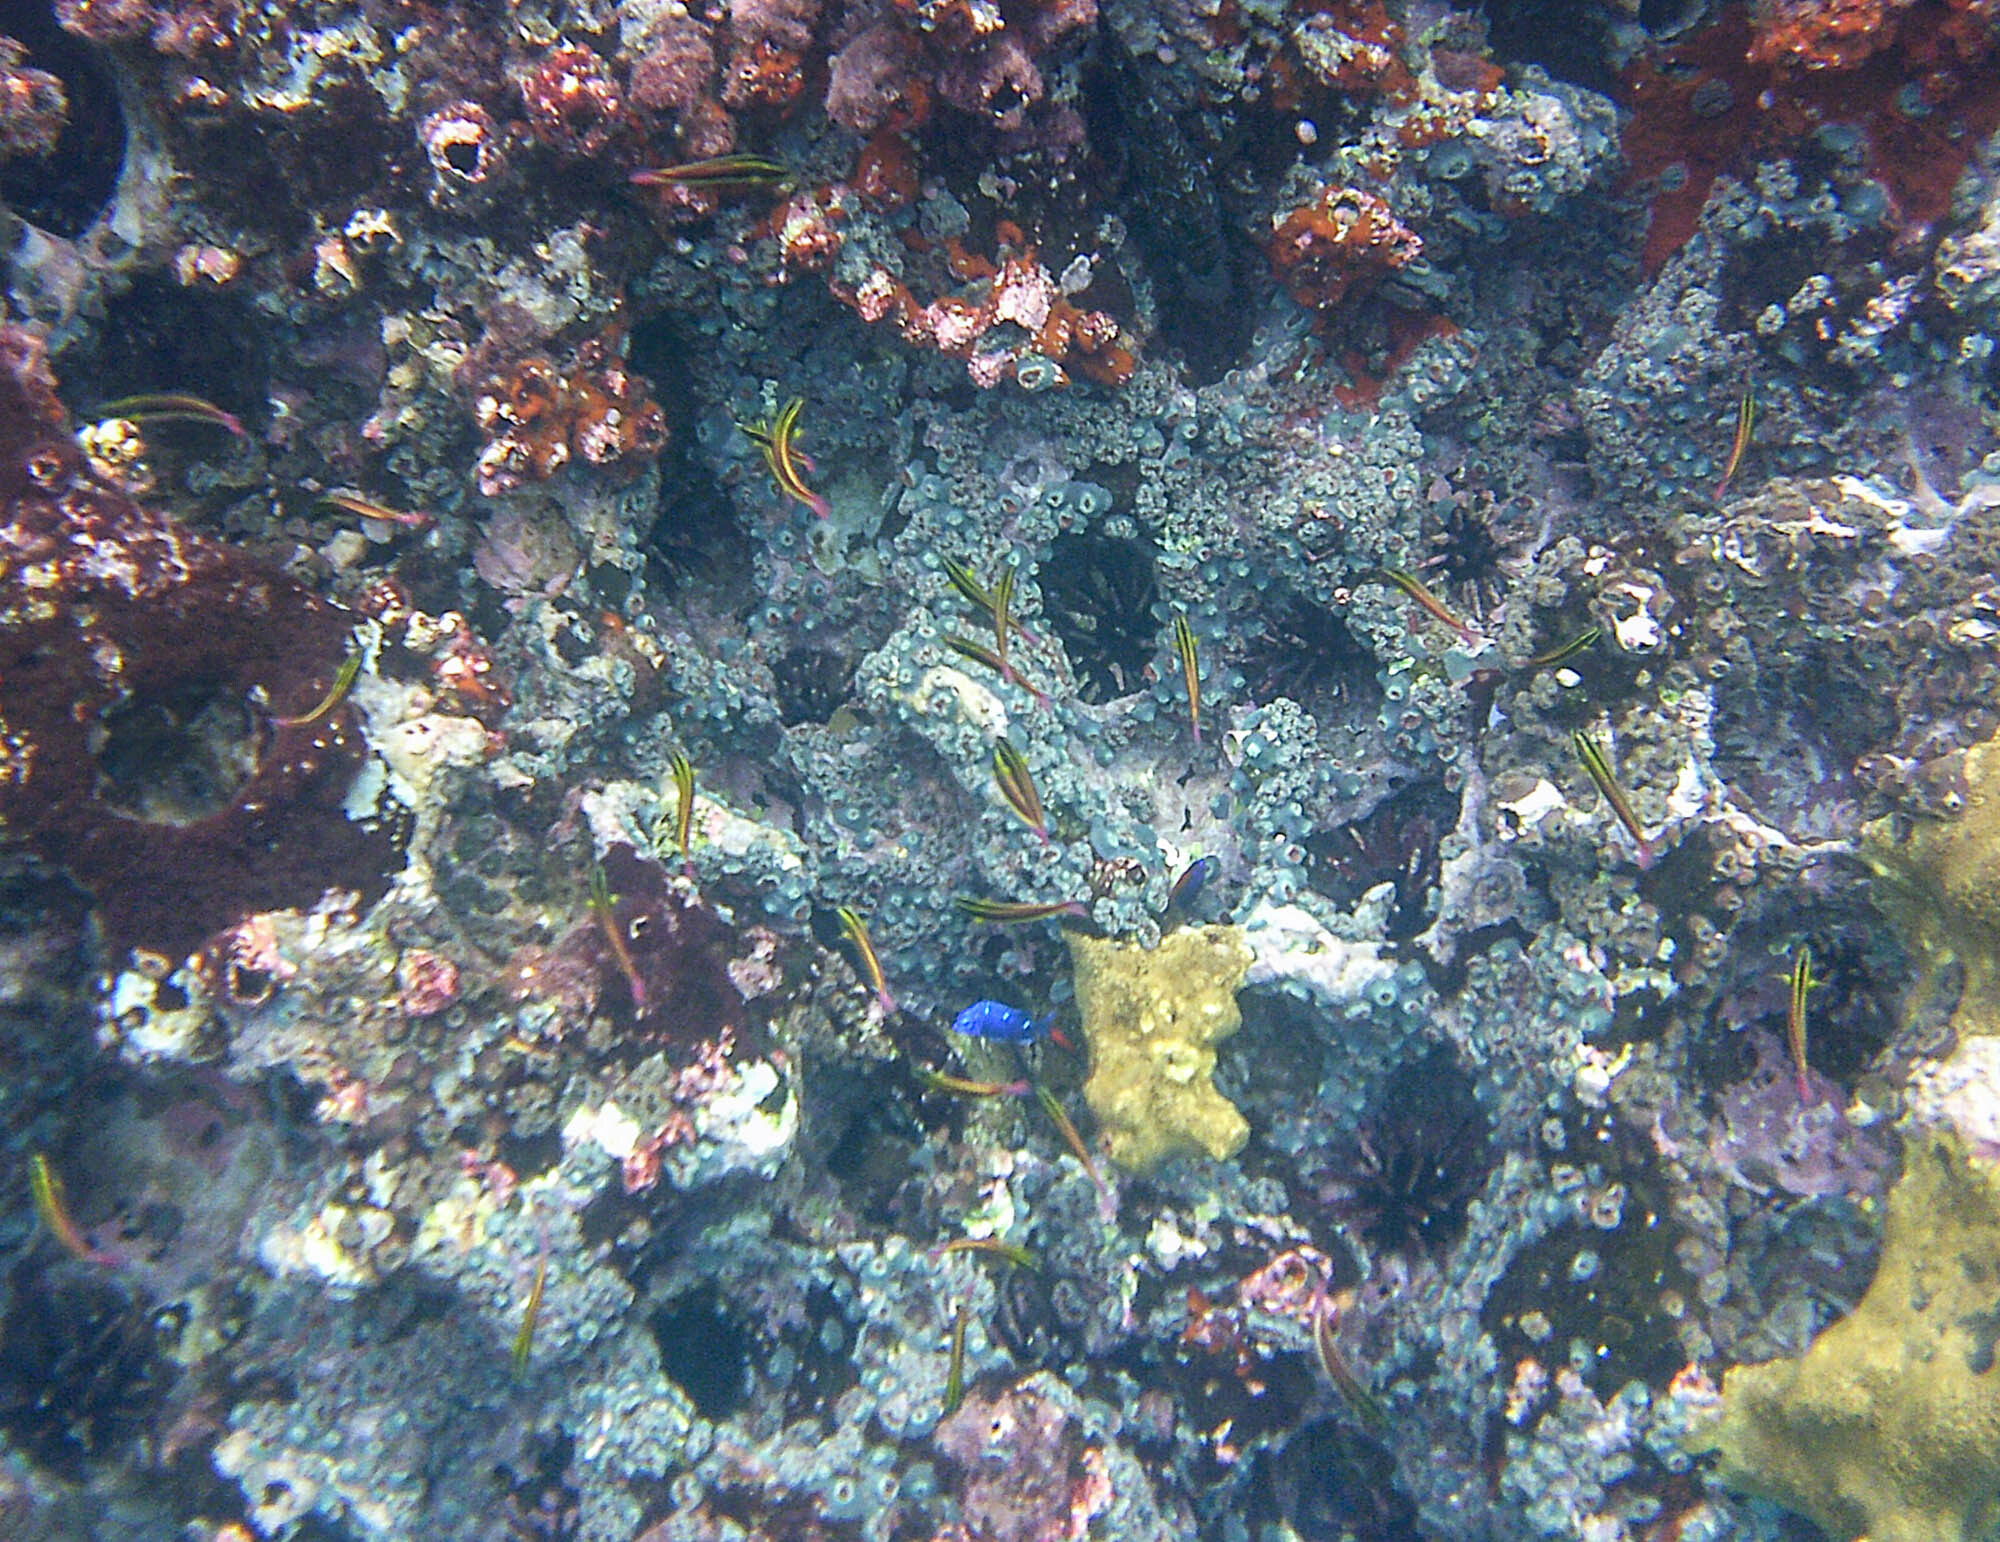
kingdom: Animalia
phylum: Chordata
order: Perciformes
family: Pomacentridae
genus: Microspathodon
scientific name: Microspathodon dorsalis
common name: Giant damselfish
